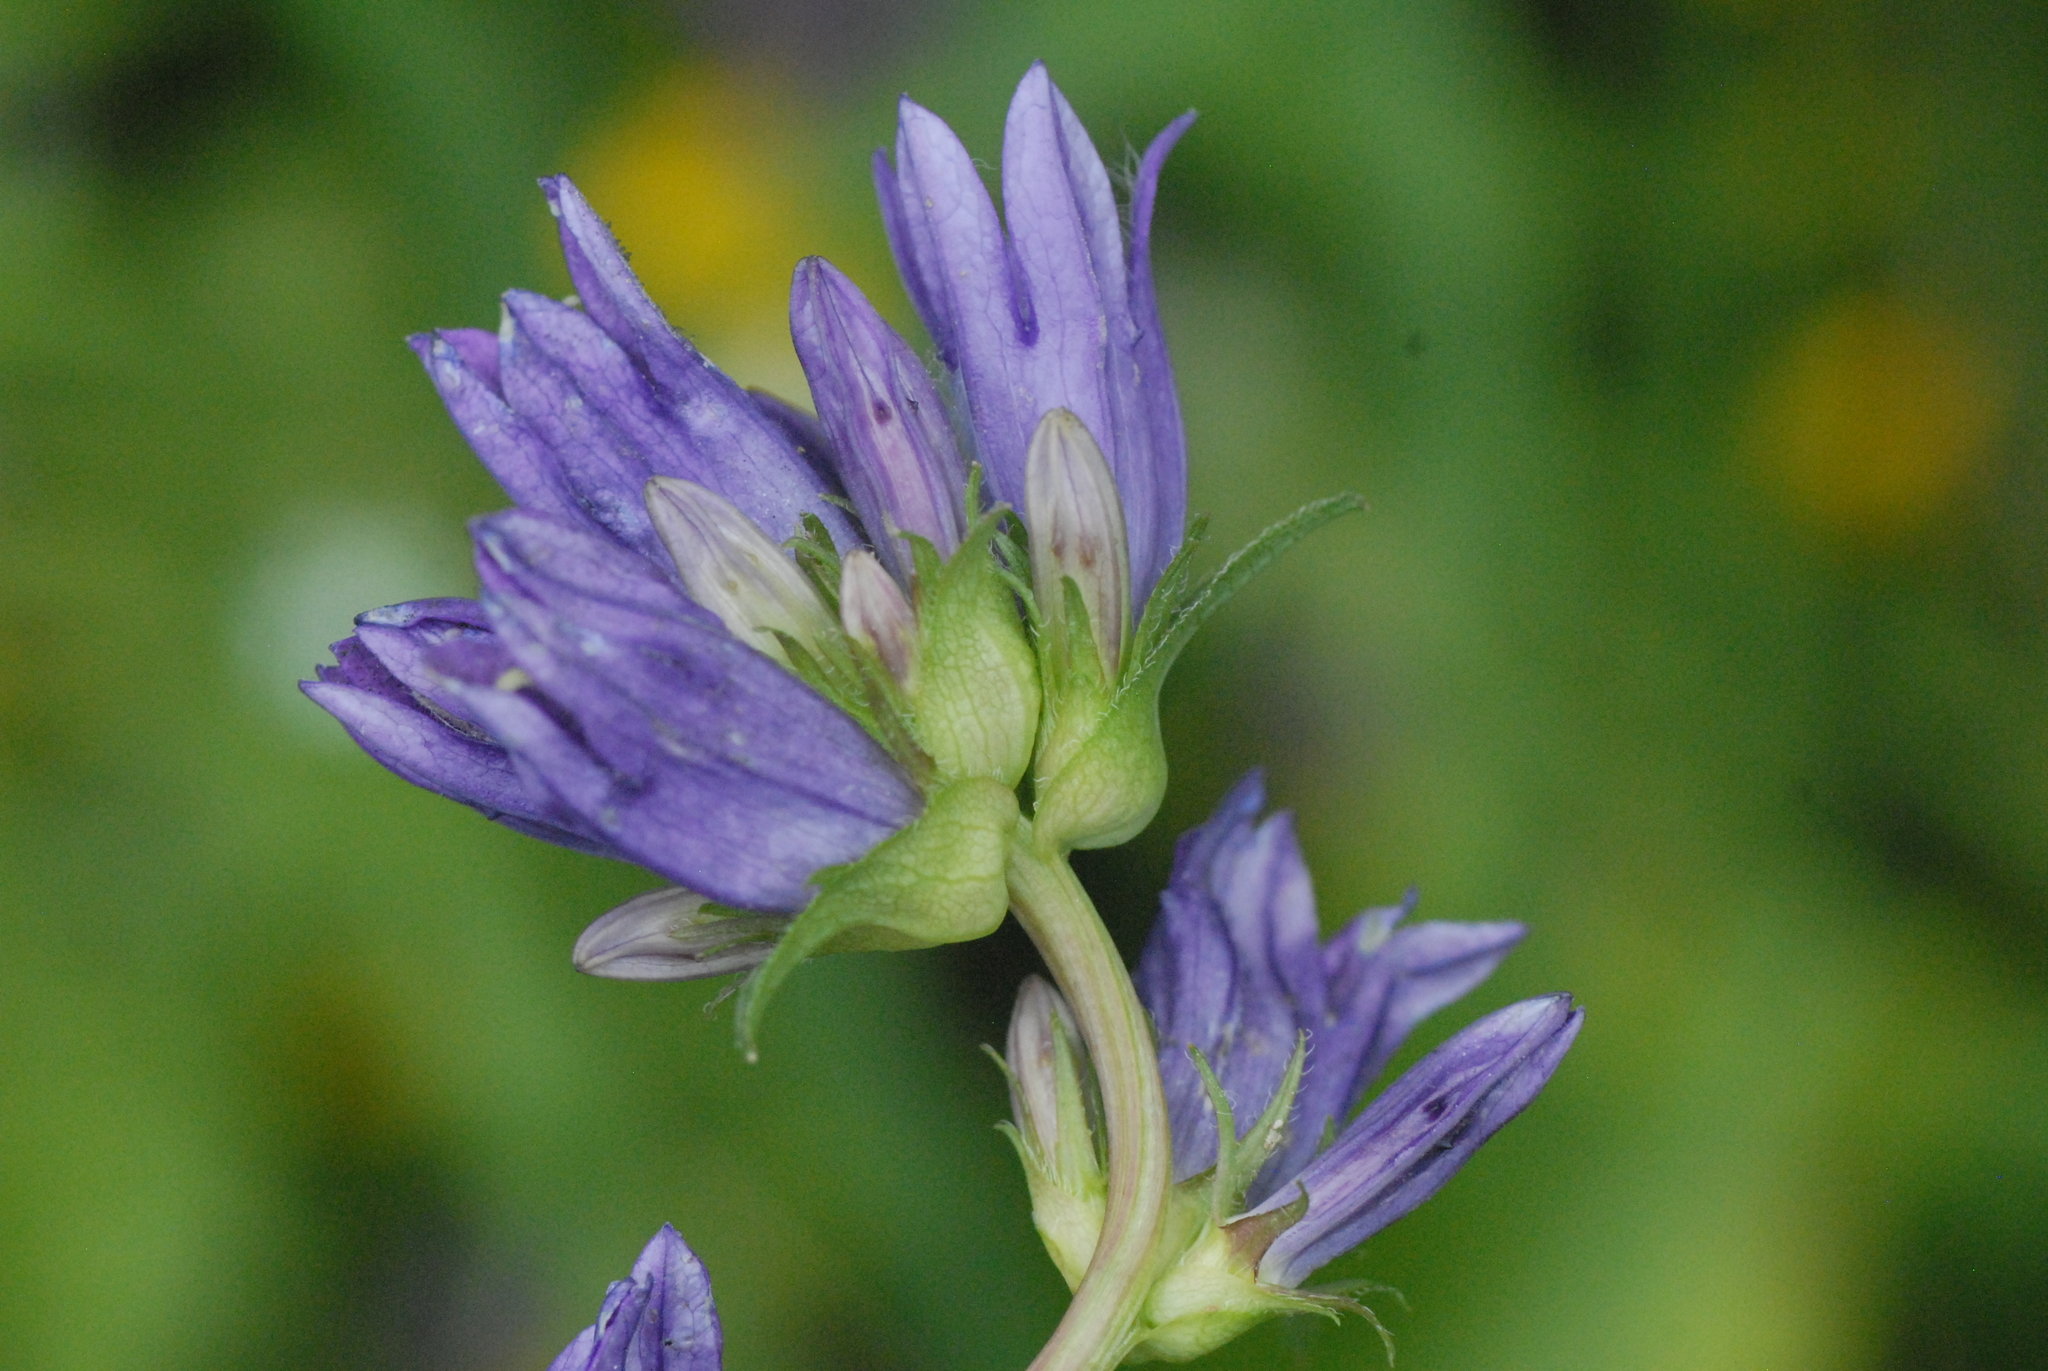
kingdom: Plantae
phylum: Tracheophyta
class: Magnoliopsida
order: Asterales
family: Campanulaceae
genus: Campanula
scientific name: Campanula glomerata
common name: Clustered bellflower
